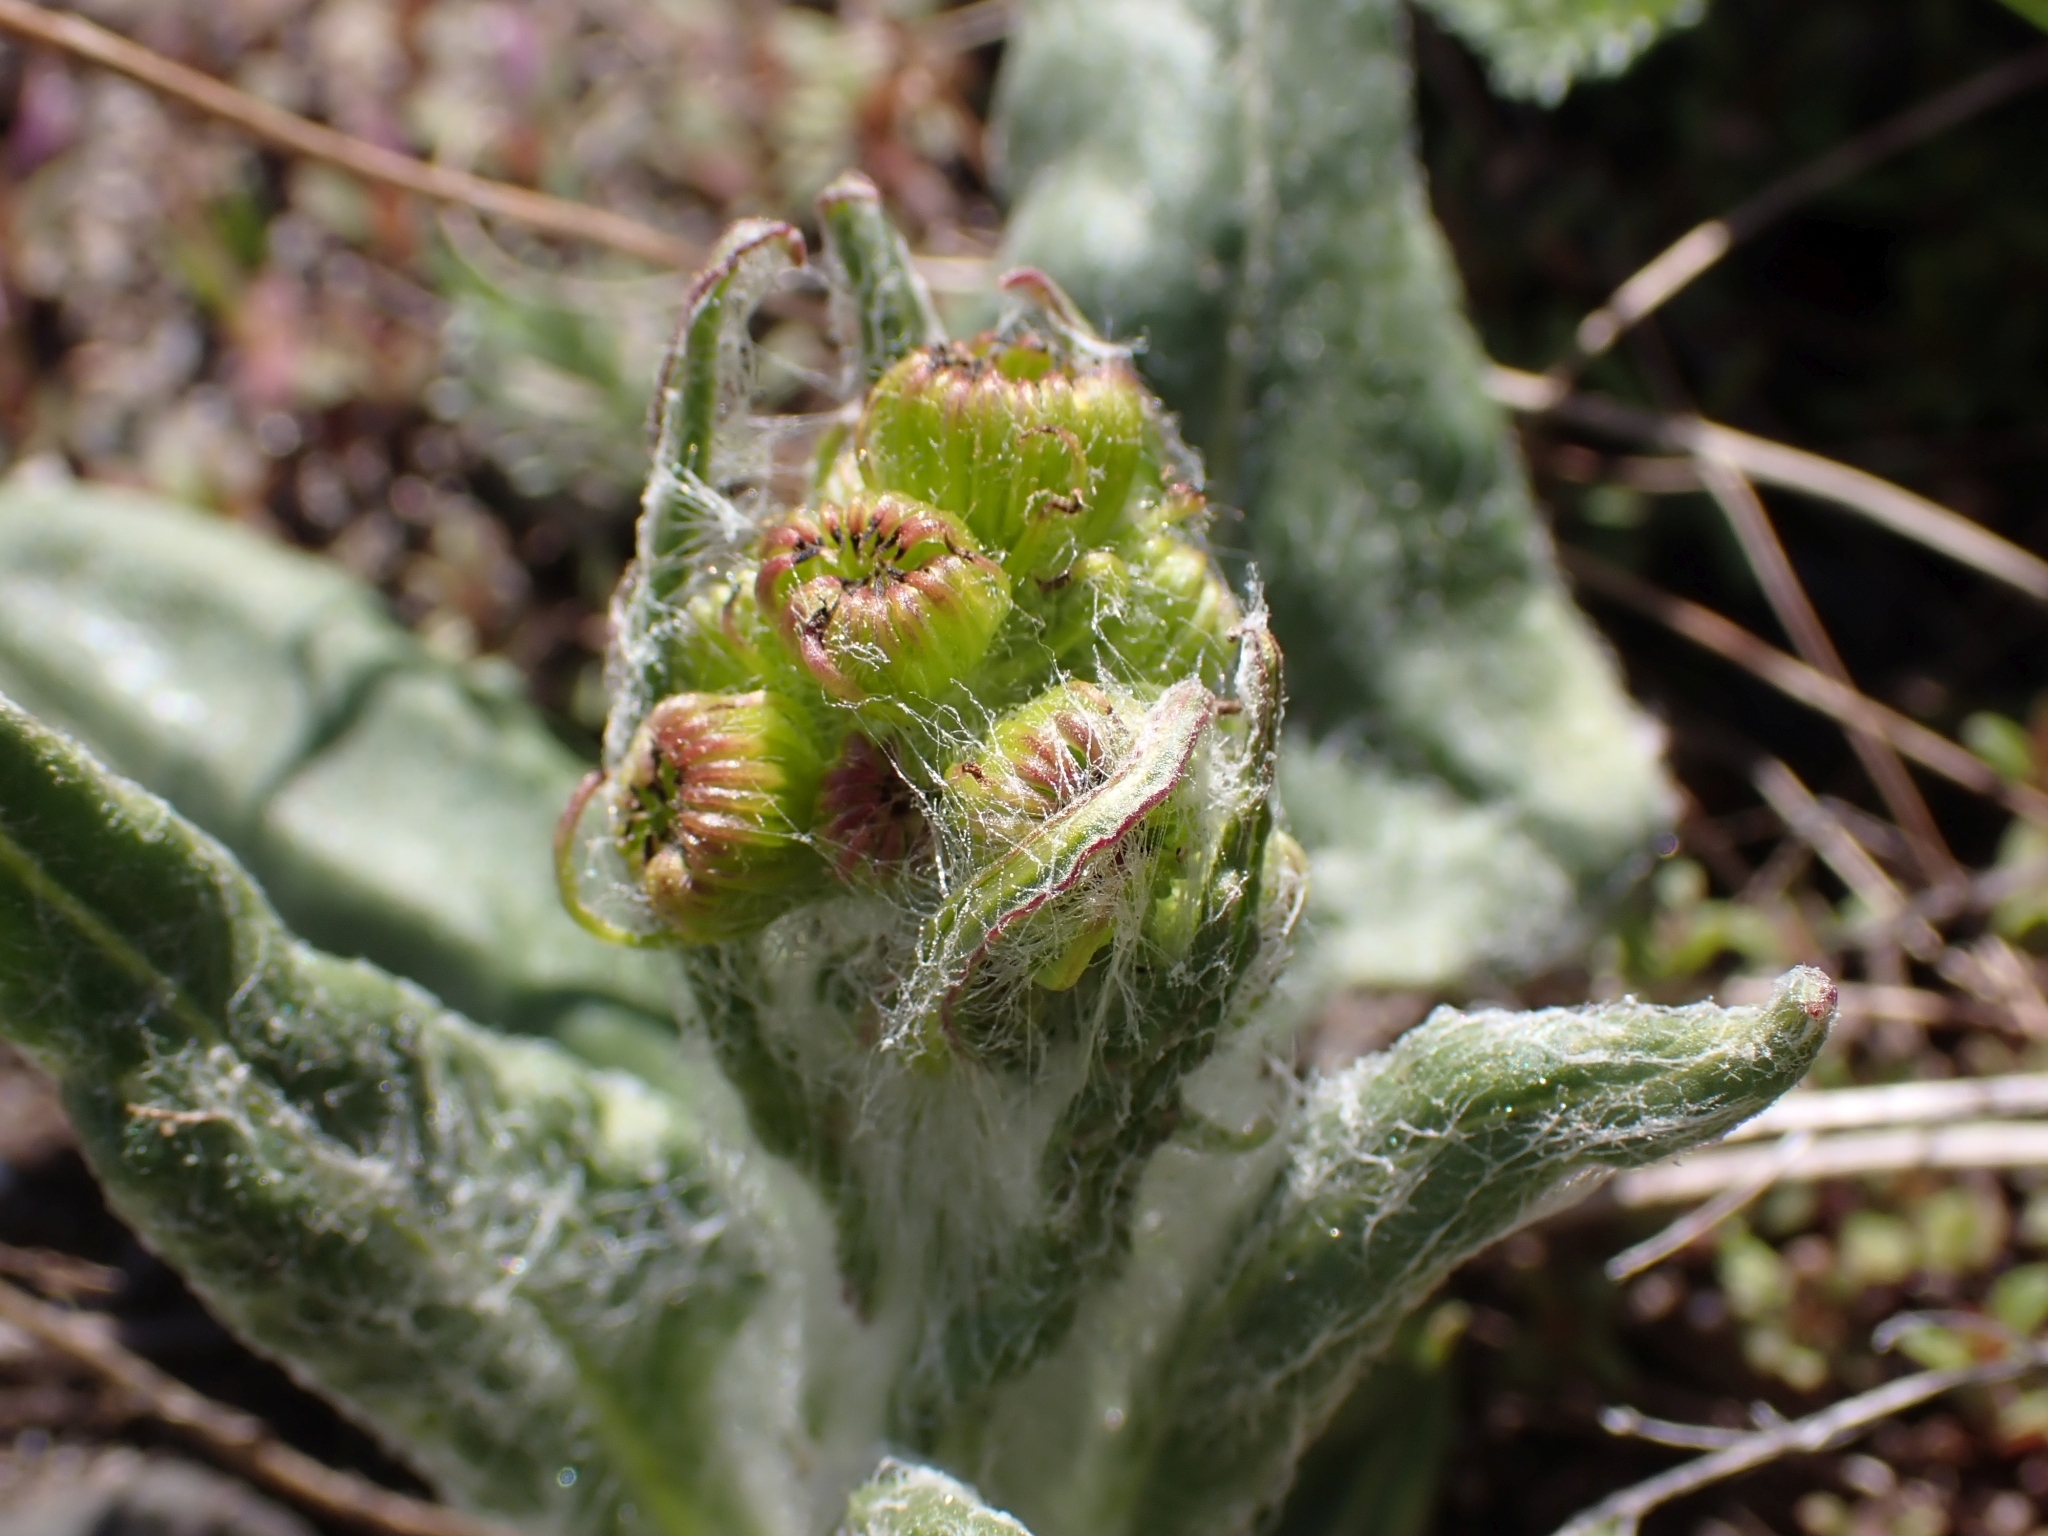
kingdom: Plantae
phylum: Tracheophyta
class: Magnoliopsida
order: Asterales
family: Asteraceae
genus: Senecio
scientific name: Senecio integerrimus
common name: Gaugeplant
